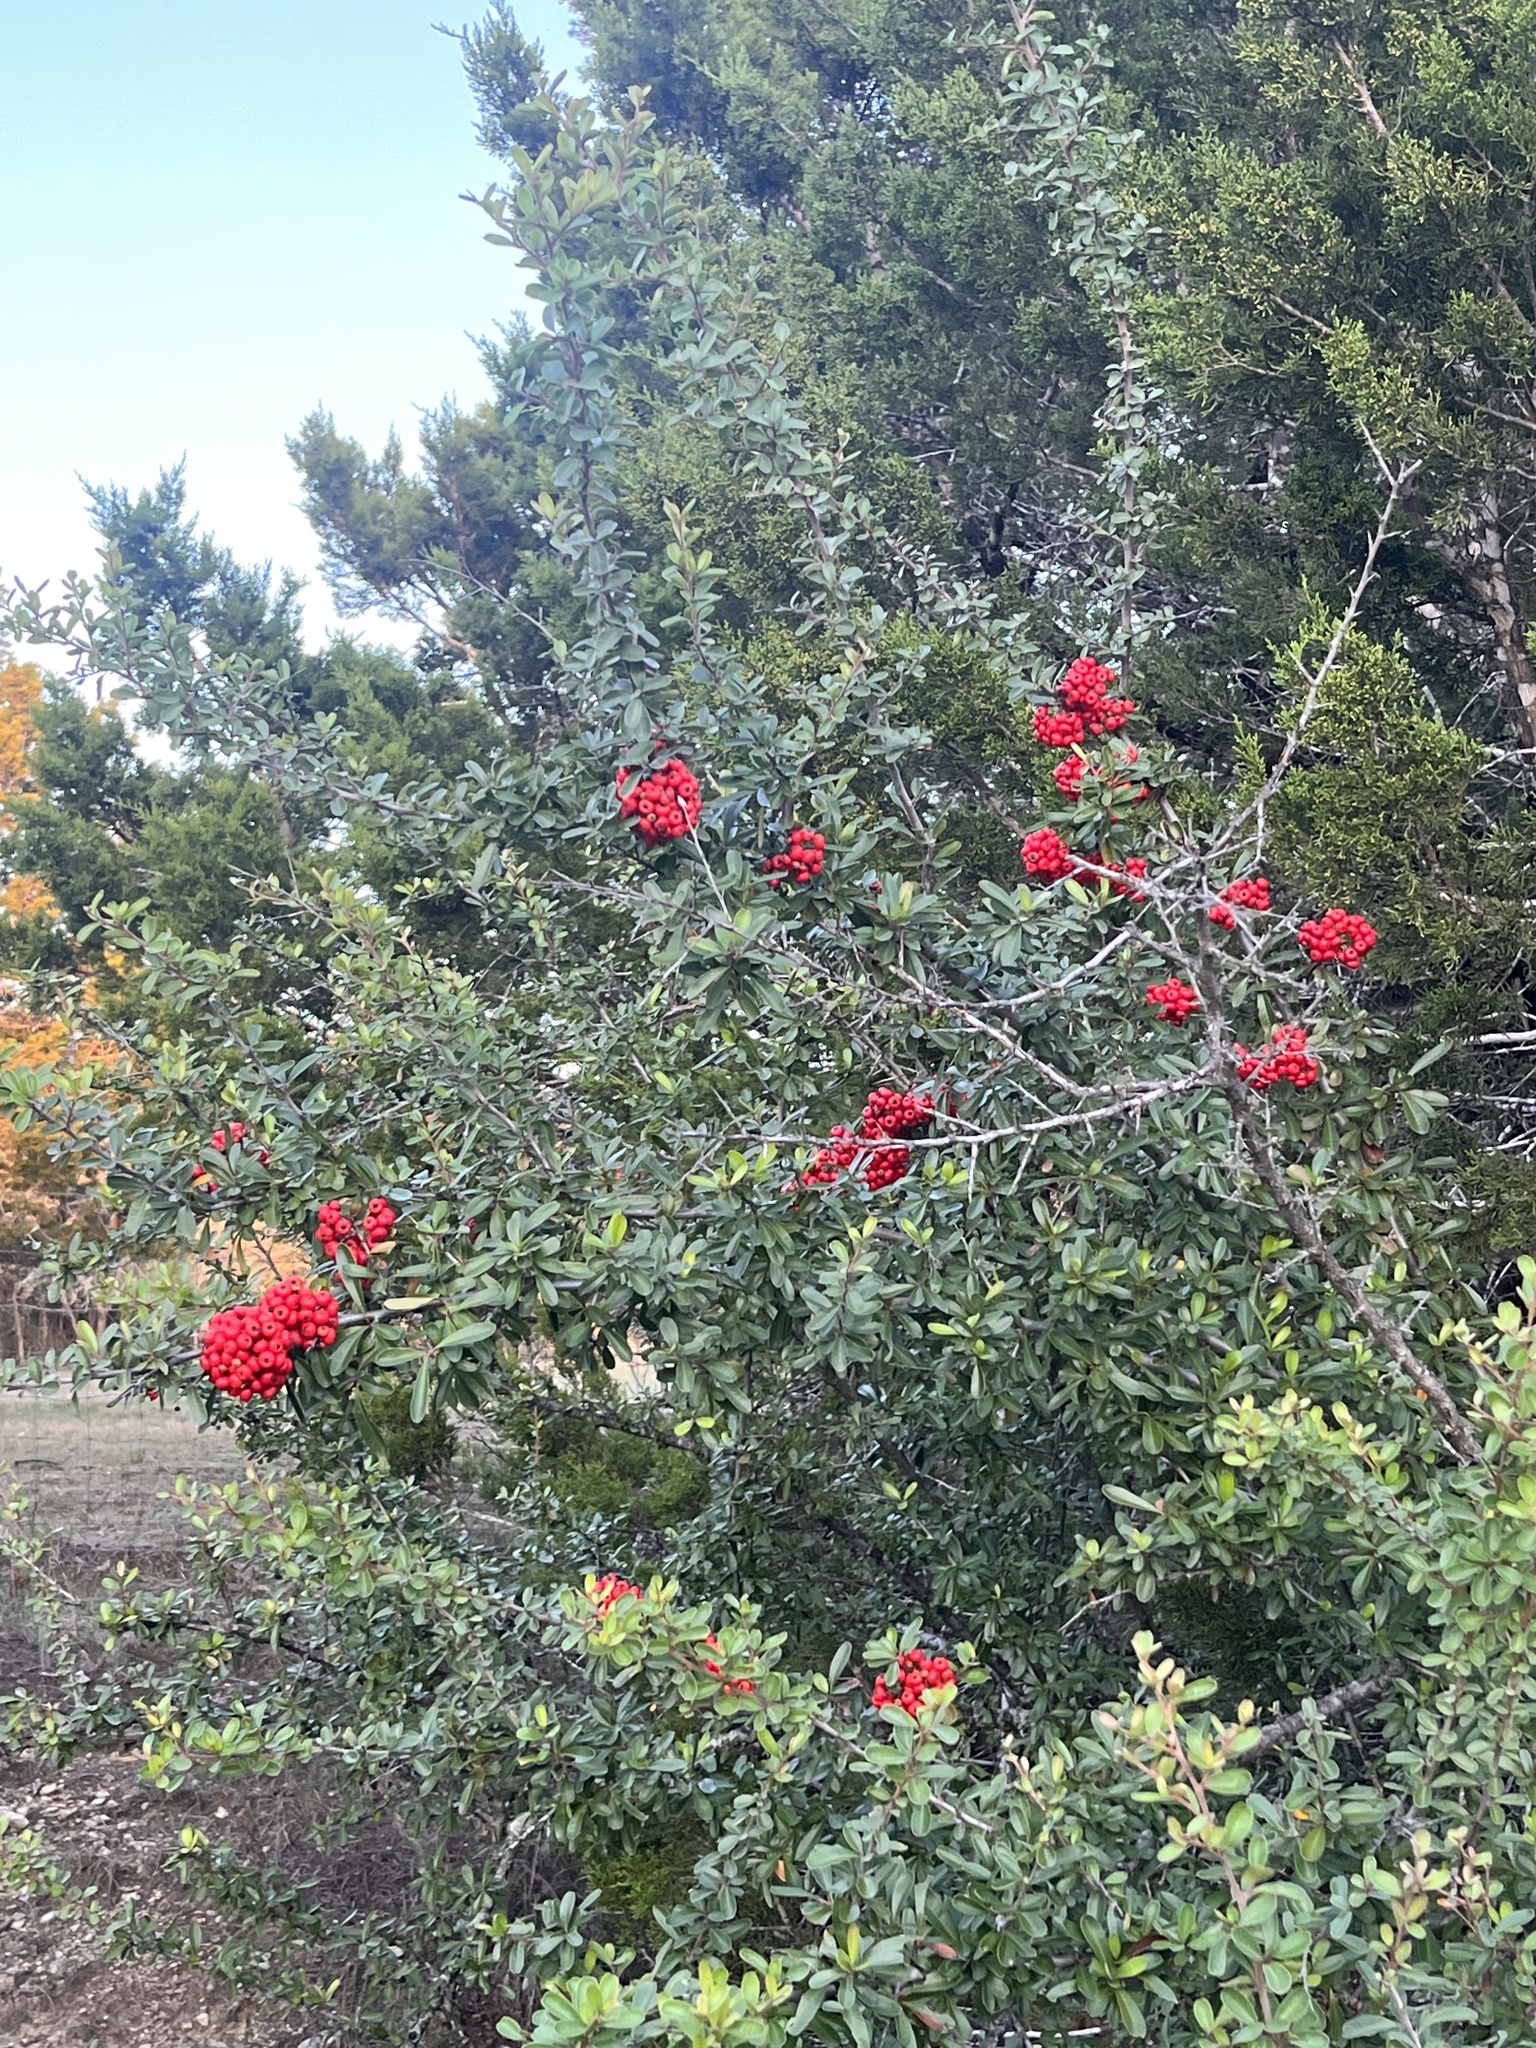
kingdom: Plantae
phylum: Tracheophyta
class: Magnoliopsida
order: Rosales
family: Rosaceae
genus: Pyracantha
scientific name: Pyracantha coccinea
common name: Firethorn
